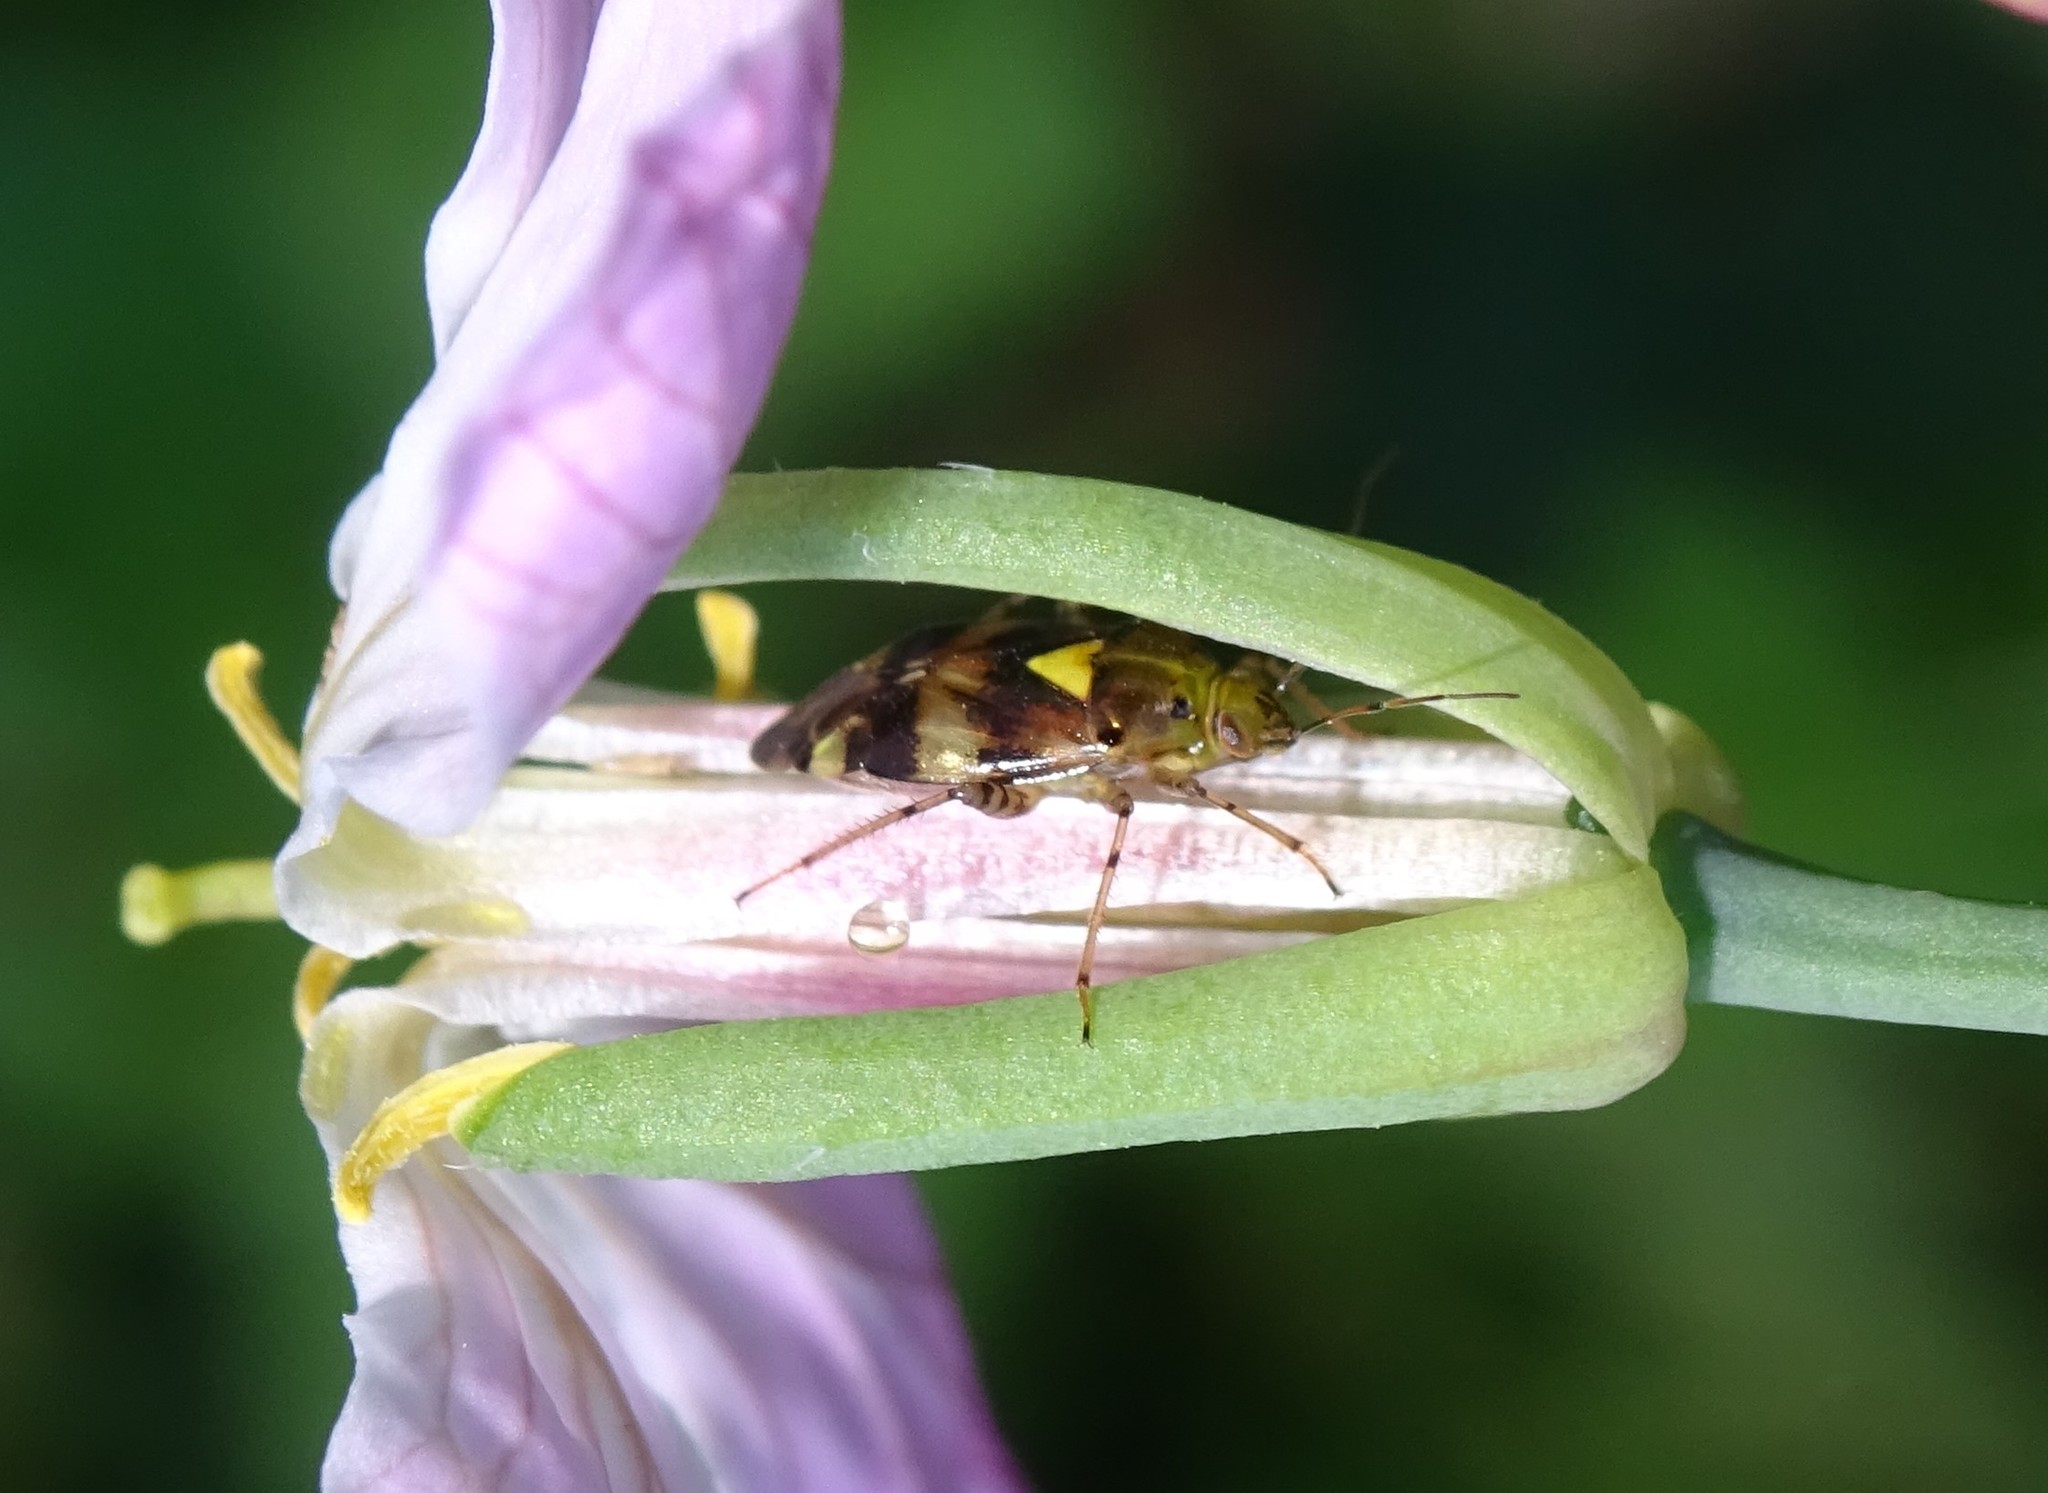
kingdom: Animalia
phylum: Arthropoda
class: Insecta
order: Hemiptera
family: Miridae
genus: Liocoris
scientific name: Liocoris tripustulatus
